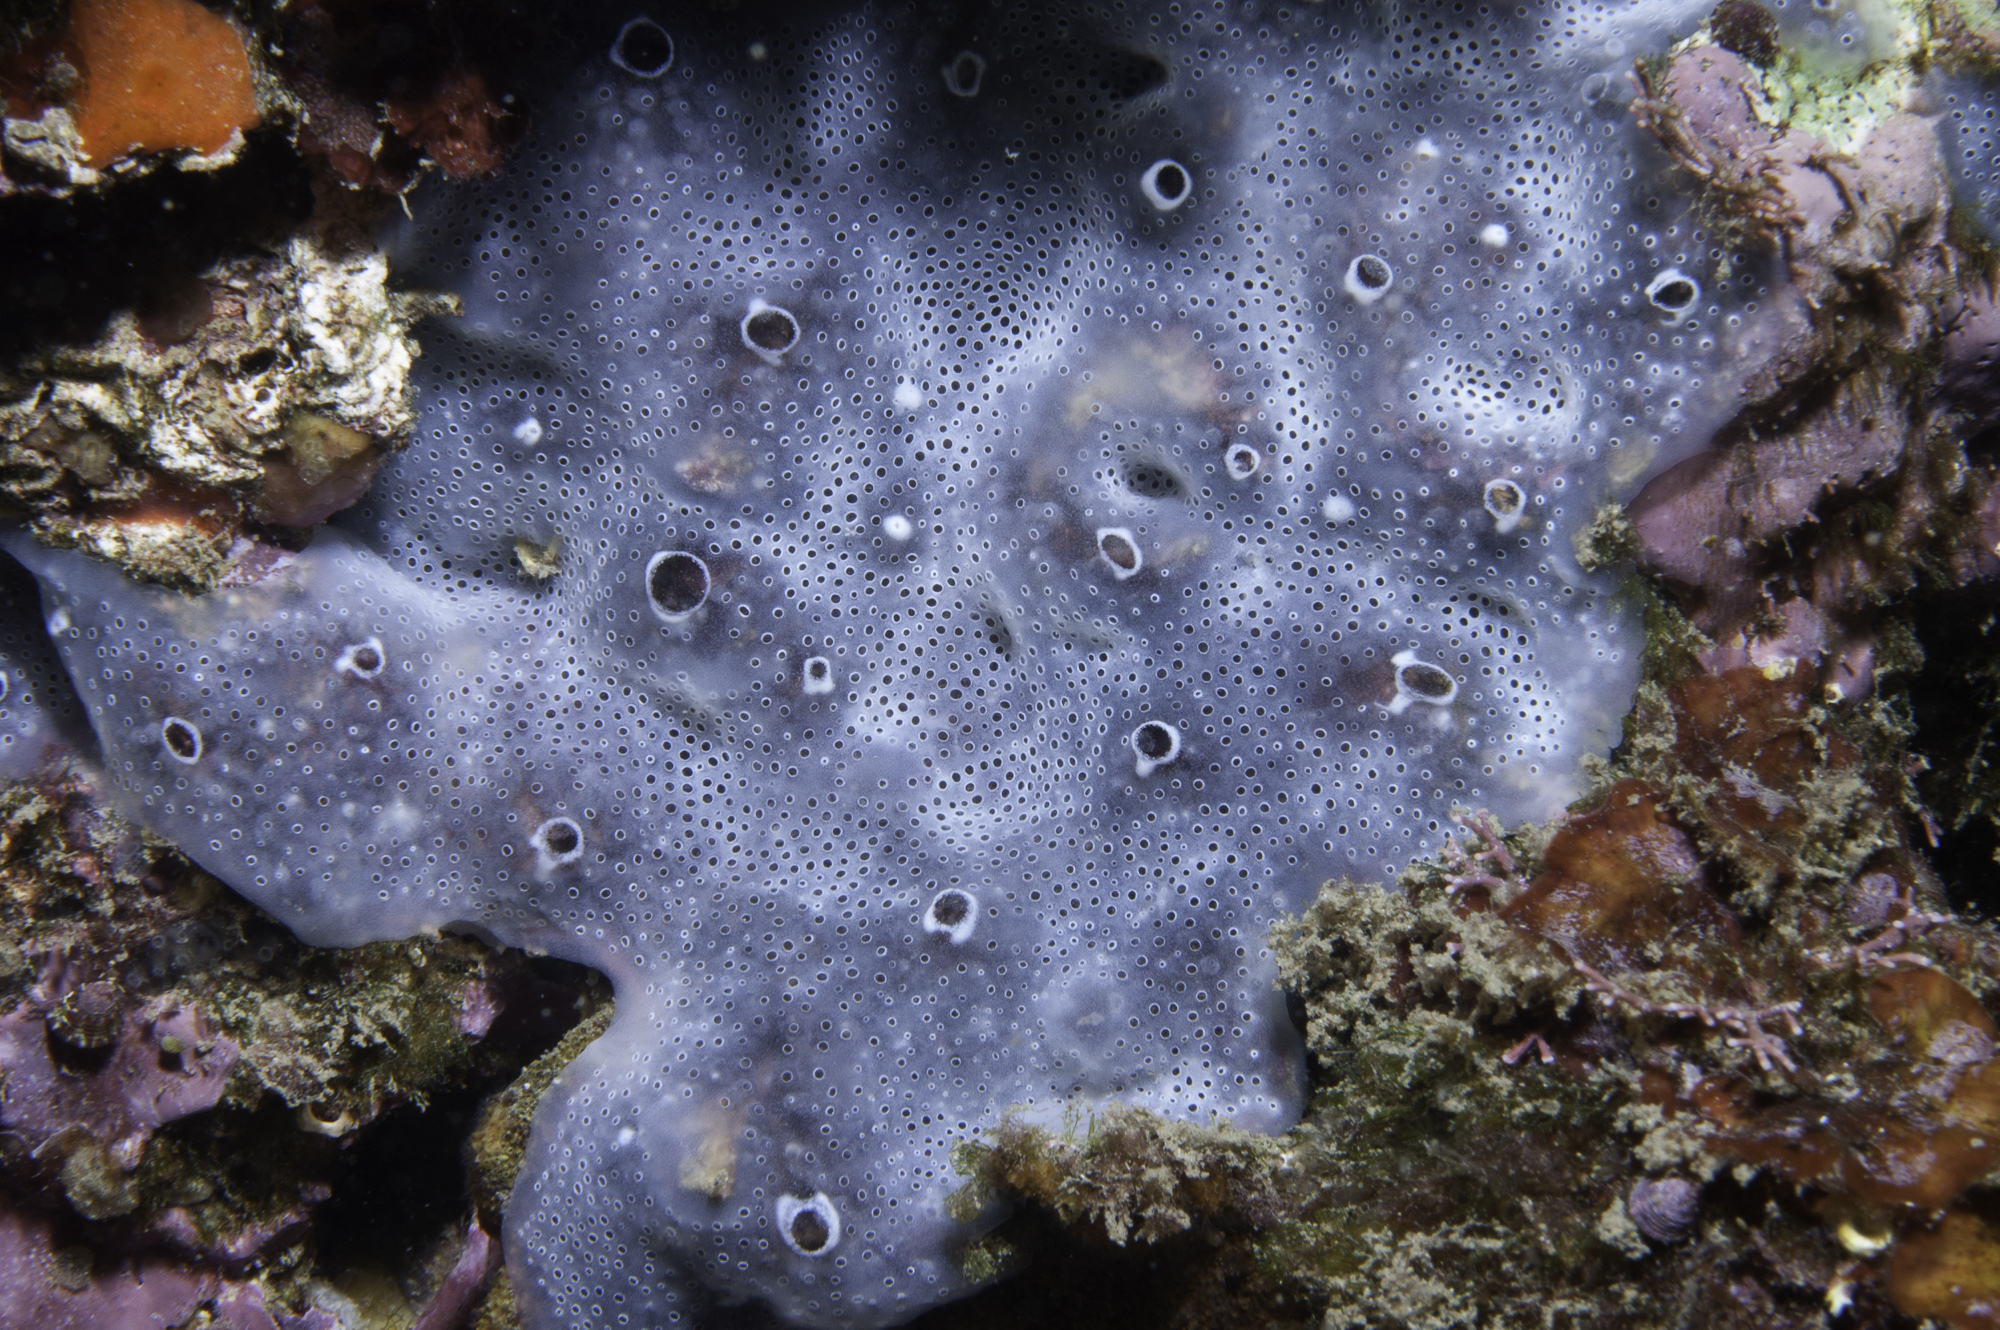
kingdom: Animalia
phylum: Chordata
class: Ascidiacea
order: Aplousobranchia
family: Didemnidae
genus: Diplosoma
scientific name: Diplosoma spongiforme
